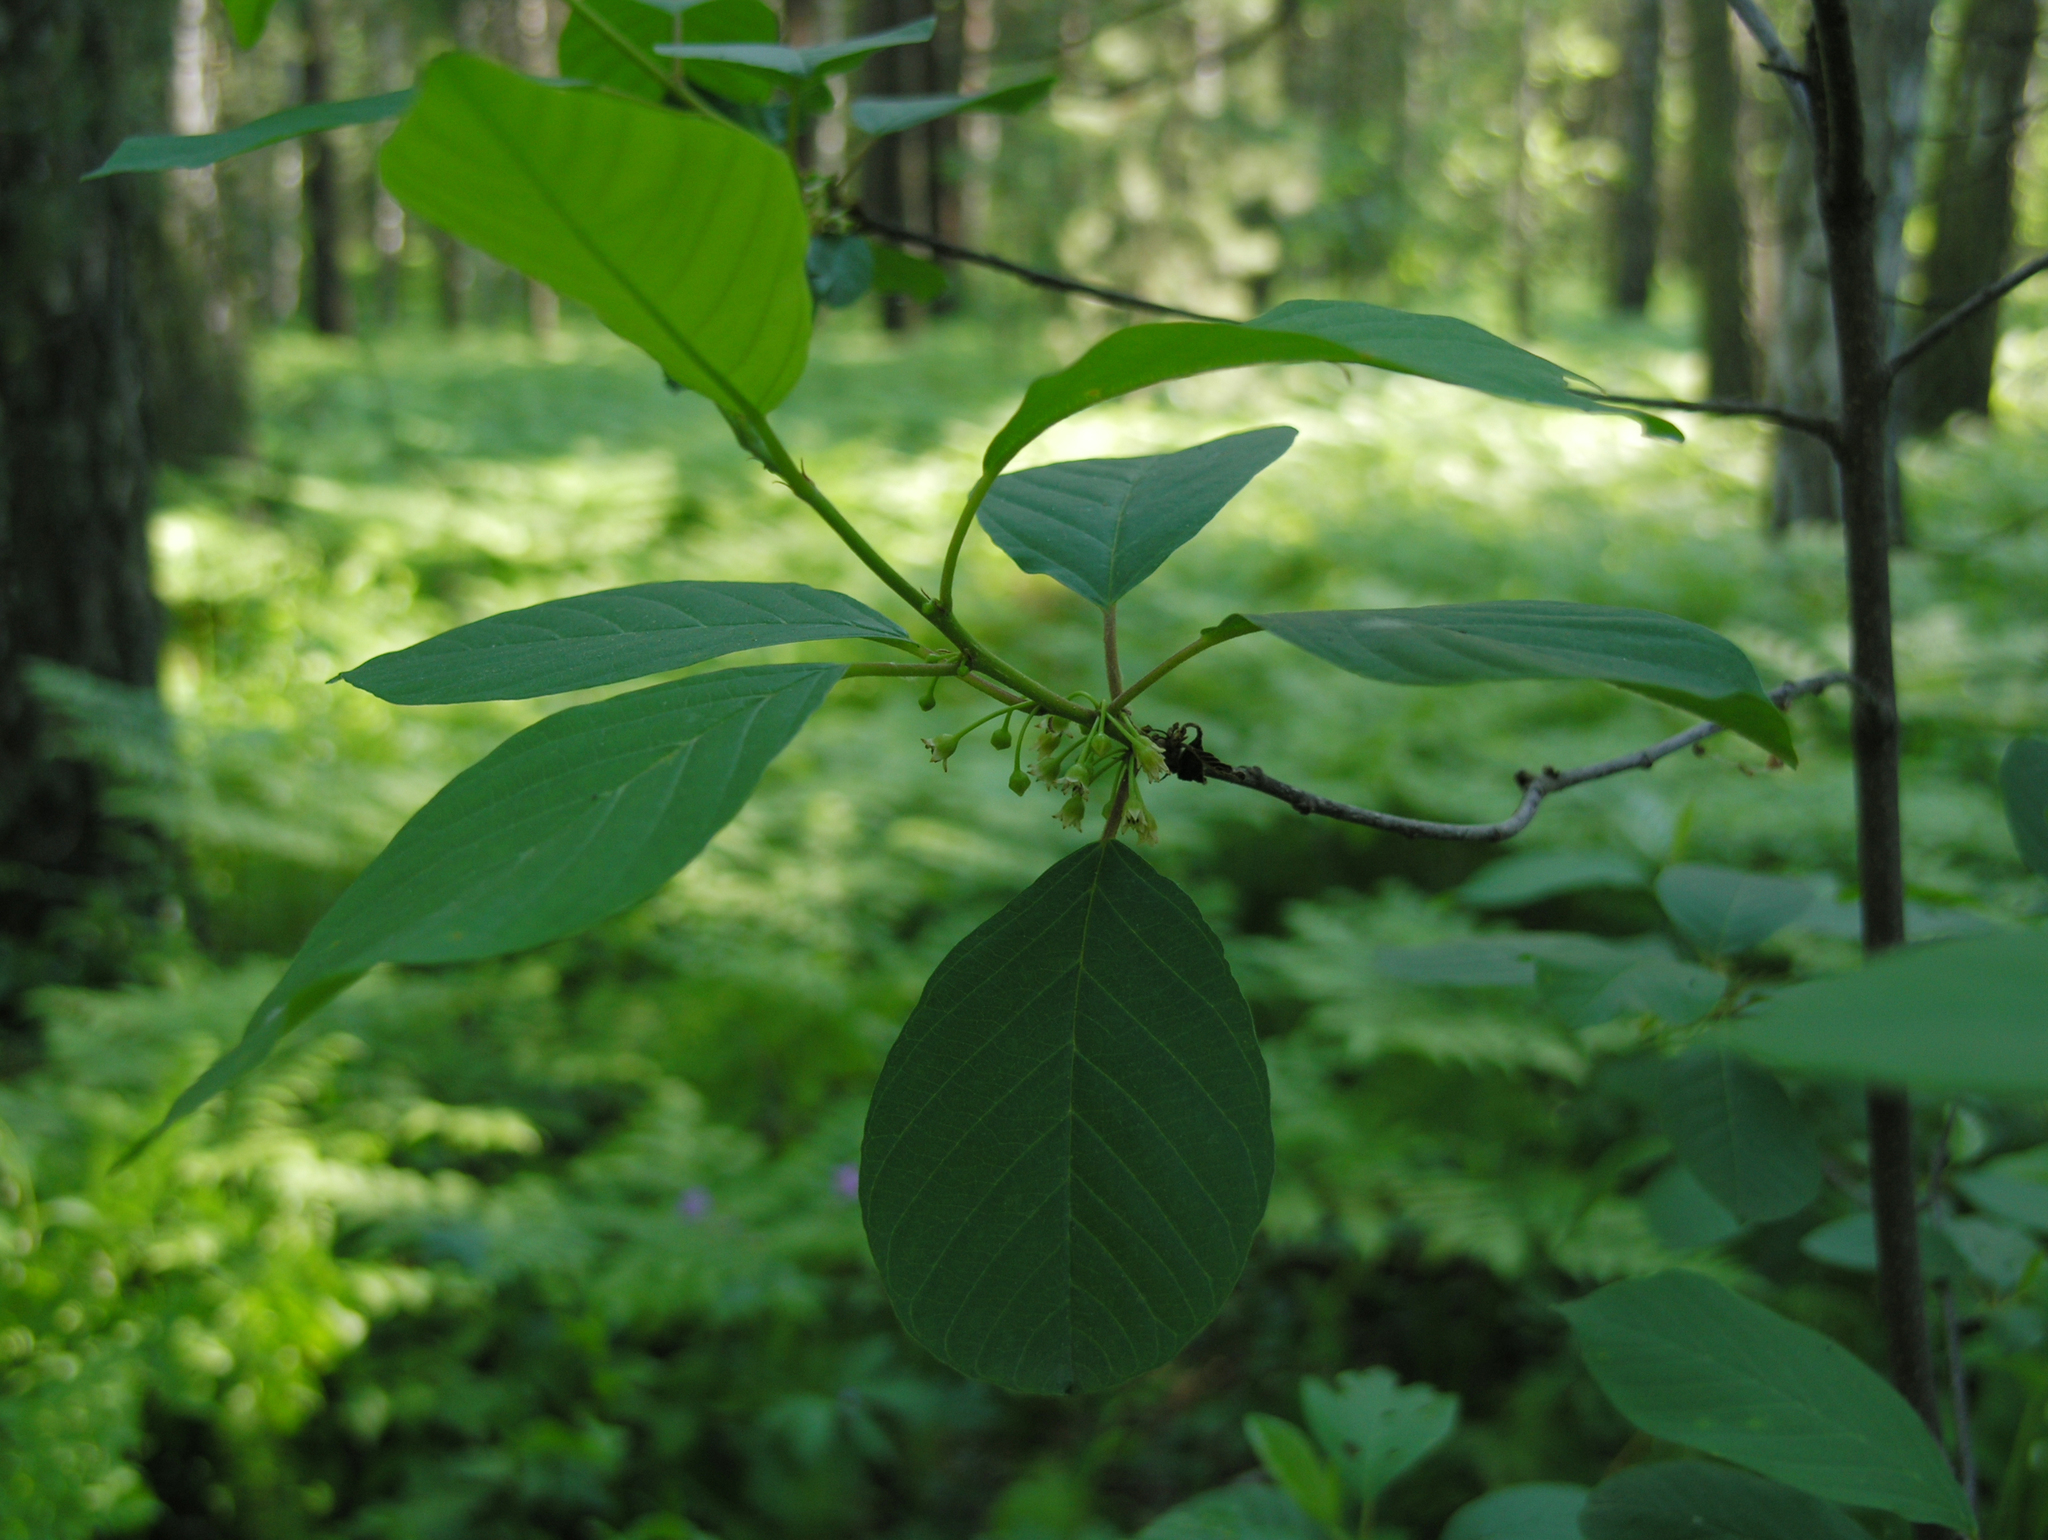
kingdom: Plantae
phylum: Tracheophyta
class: Magnoliopsida
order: Rosales
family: Rhamnaceae
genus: Frangula
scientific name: Frangula alnus
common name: Alder buckthorn
